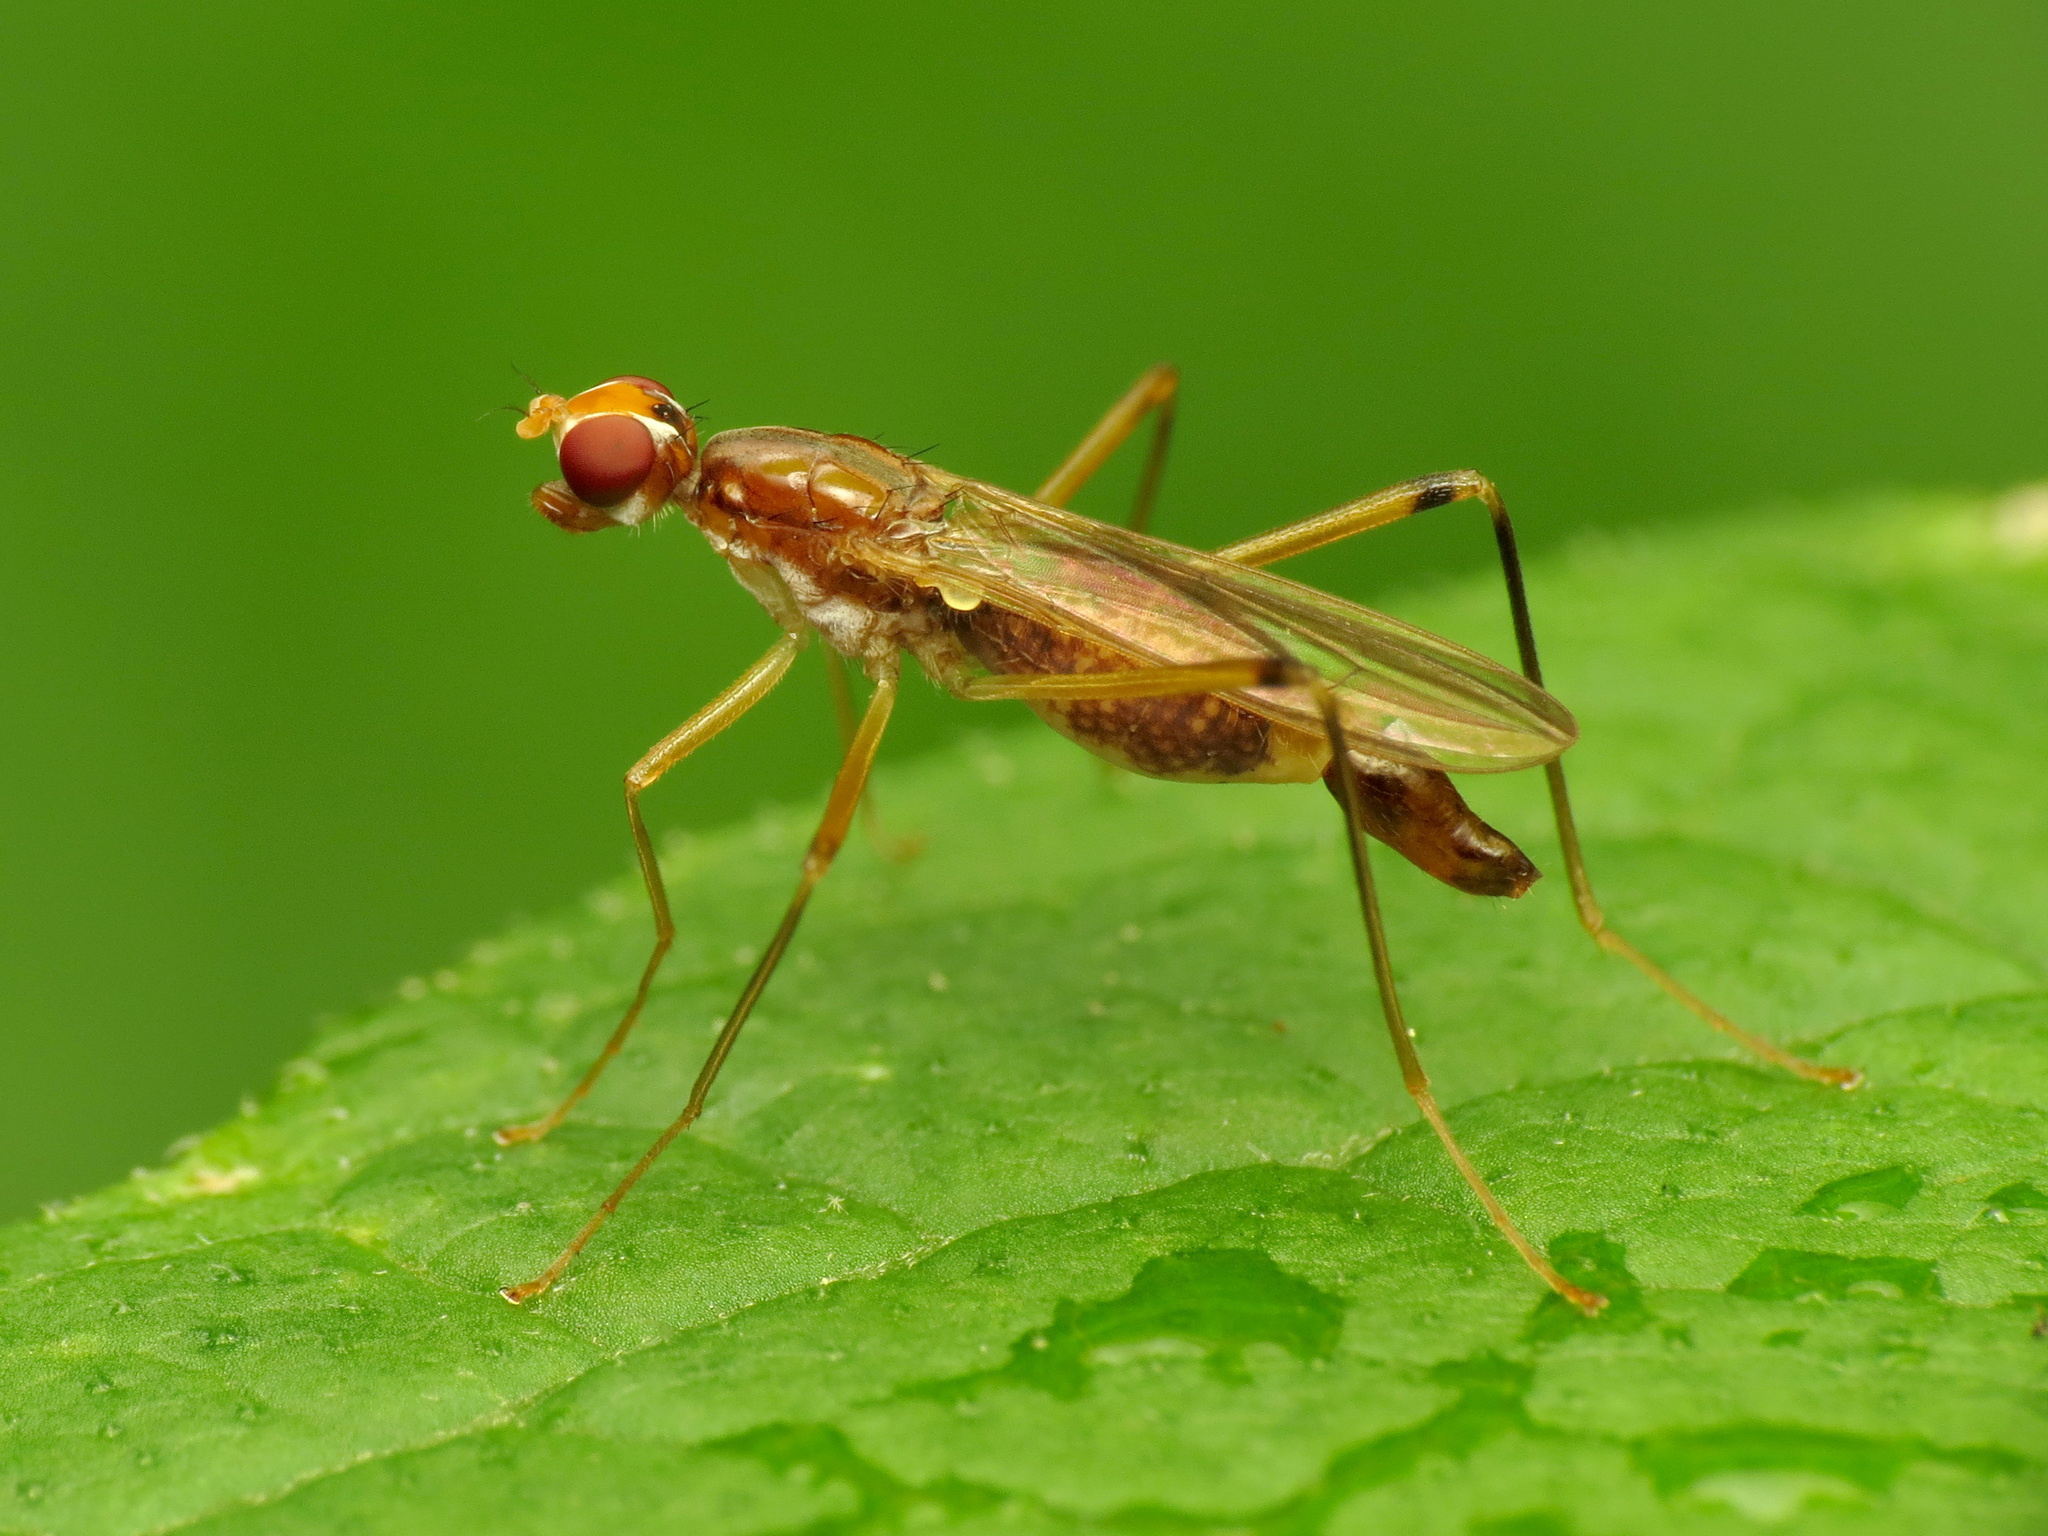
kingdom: Animalia
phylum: Arthropoda
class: Insecta
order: Diptera
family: Micropezidae
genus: Compsobata
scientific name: Compsobata univitta
